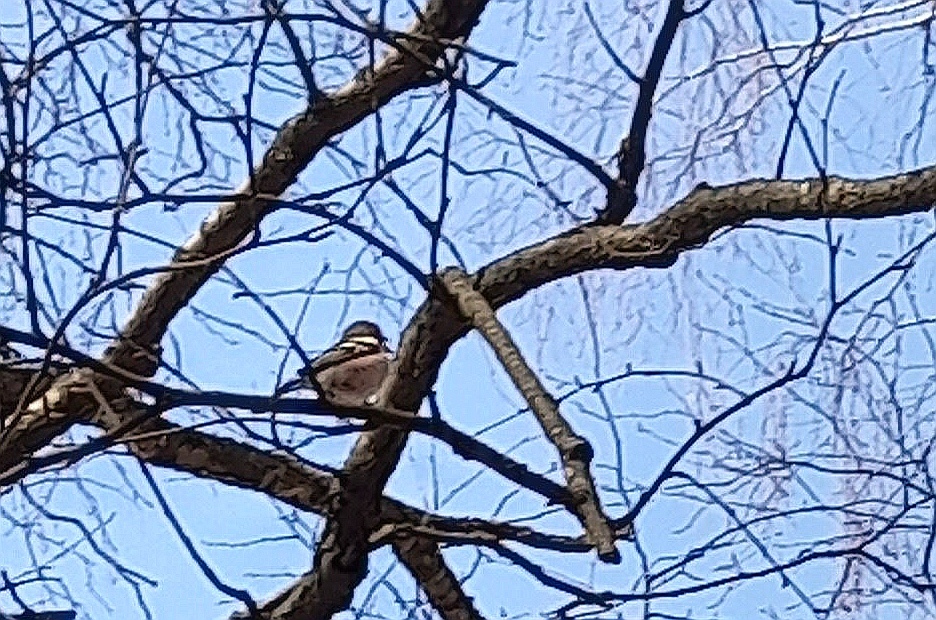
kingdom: Animalia
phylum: Chordata
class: Aves
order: Passeriformes
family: Fringillidae
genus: Fringilla
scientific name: Fringilla coelebs
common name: Common chaffinch
